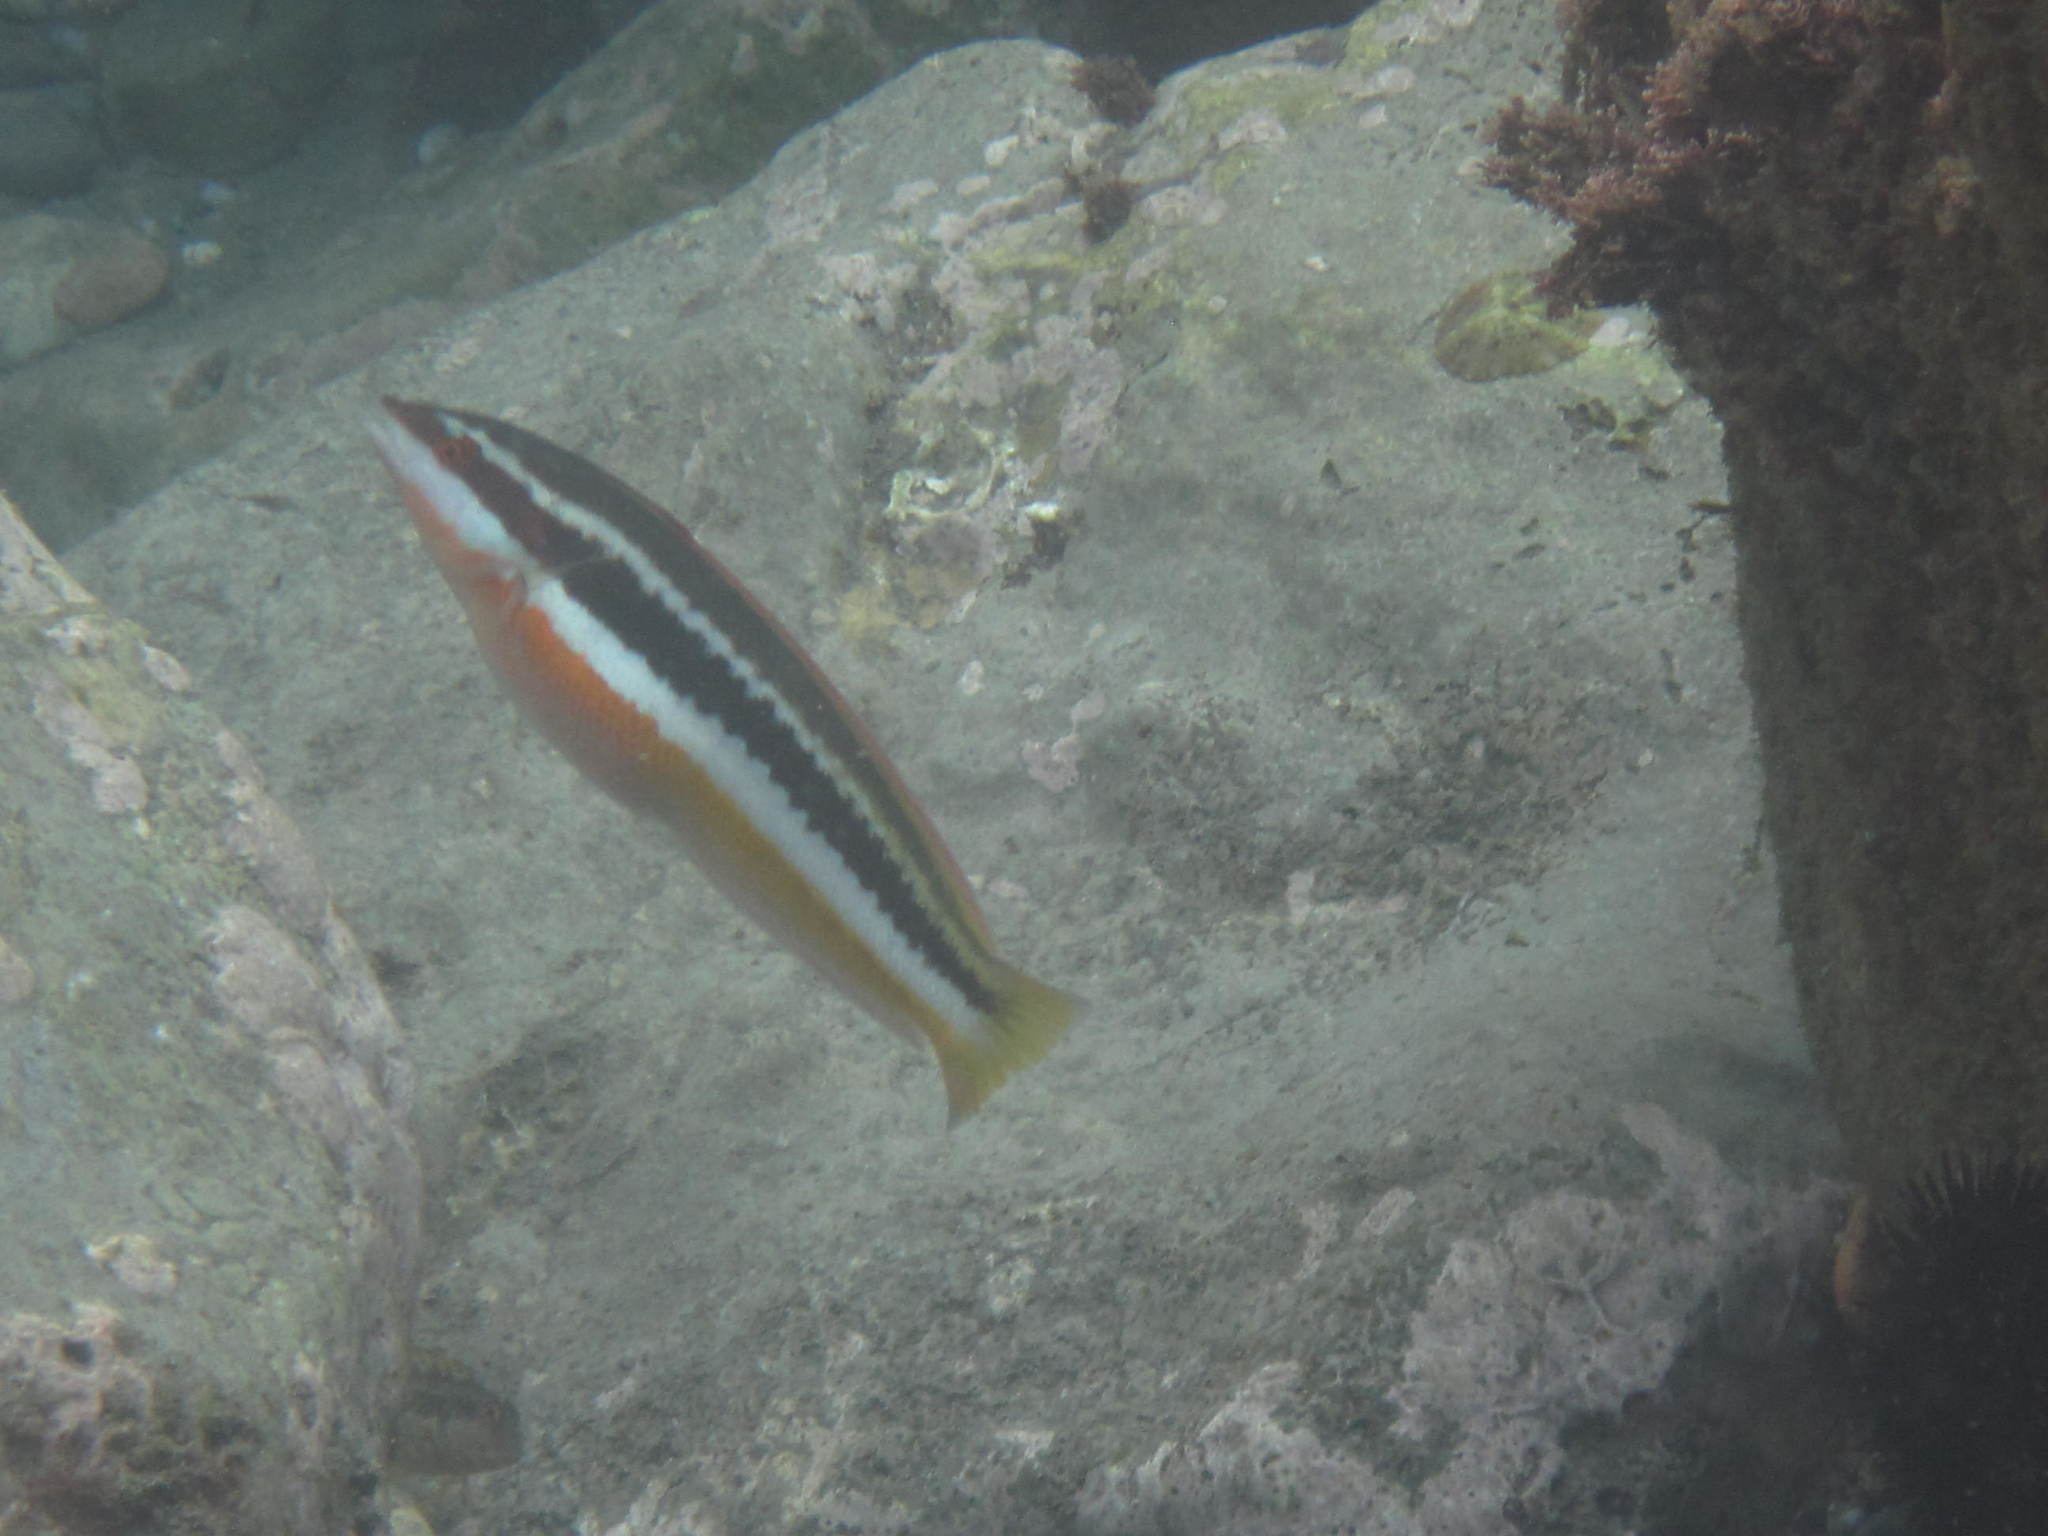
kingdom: Animalia
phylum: Chordata
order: Perciformes
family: Labridae
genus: Coris
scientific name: Coris julis
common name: Rainbow wrasse
